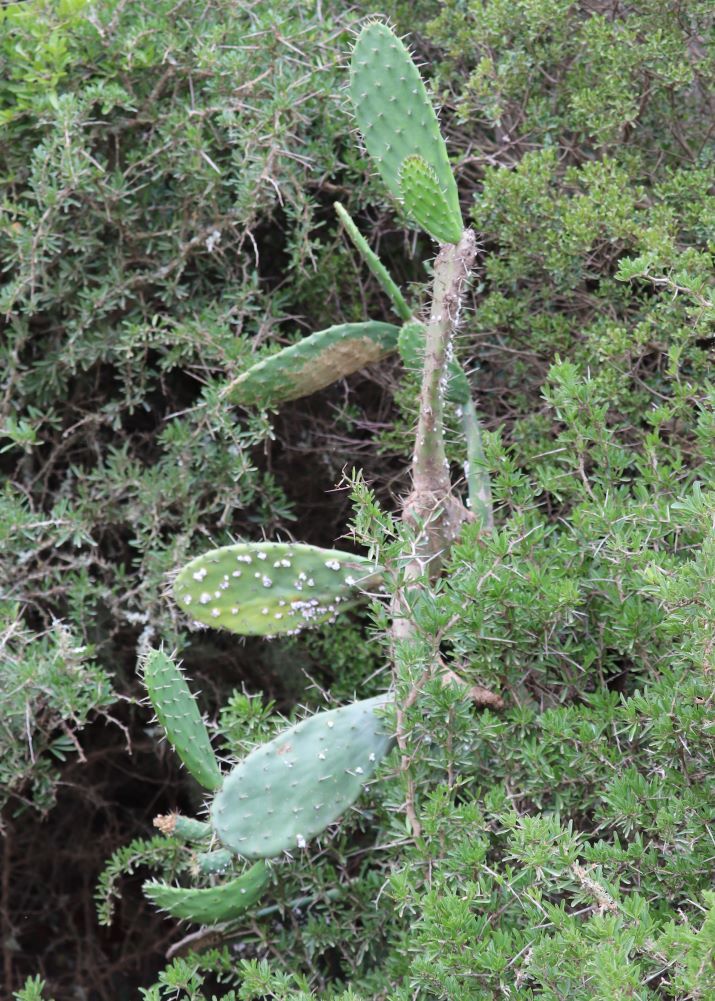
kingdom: Plantae
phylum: Tracheophyta
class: Magnoliopsida
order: Caryophyllales
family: Cactaceae
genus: Opuntia
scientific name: Opuntia ficus-indica
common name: Barbary fig
